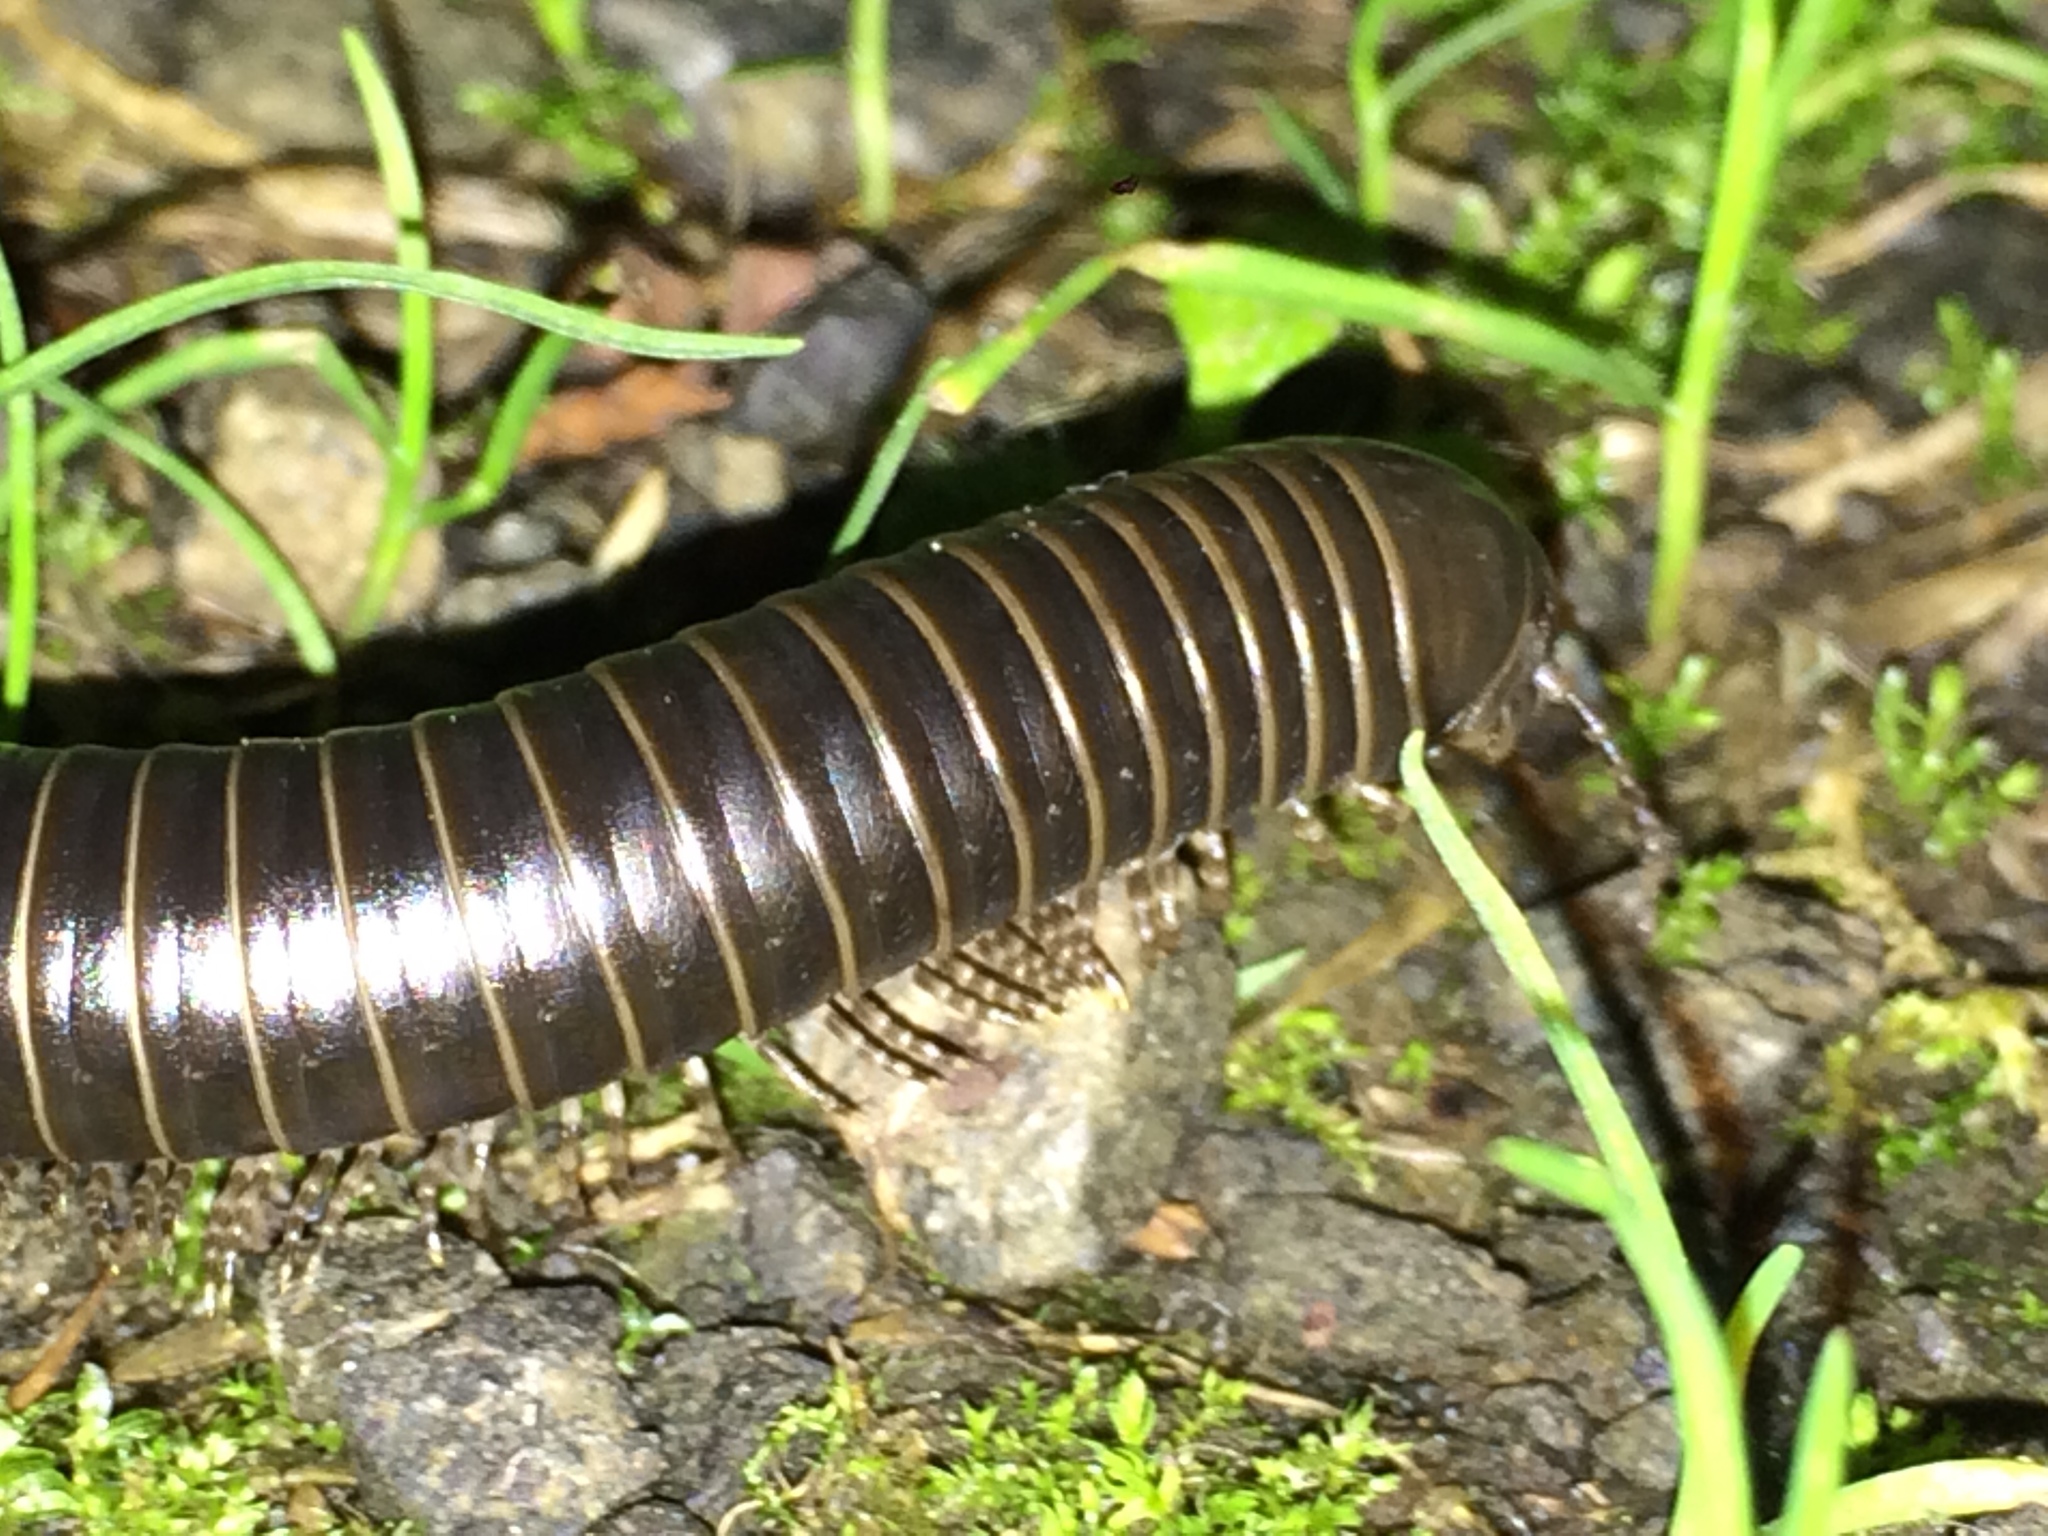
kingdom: Animalia
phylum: Arthropoda
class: Diplopoda
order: Spirobolida
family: Spirobolidae
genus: Tylobolus
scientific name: Tylobolus uncigerus
